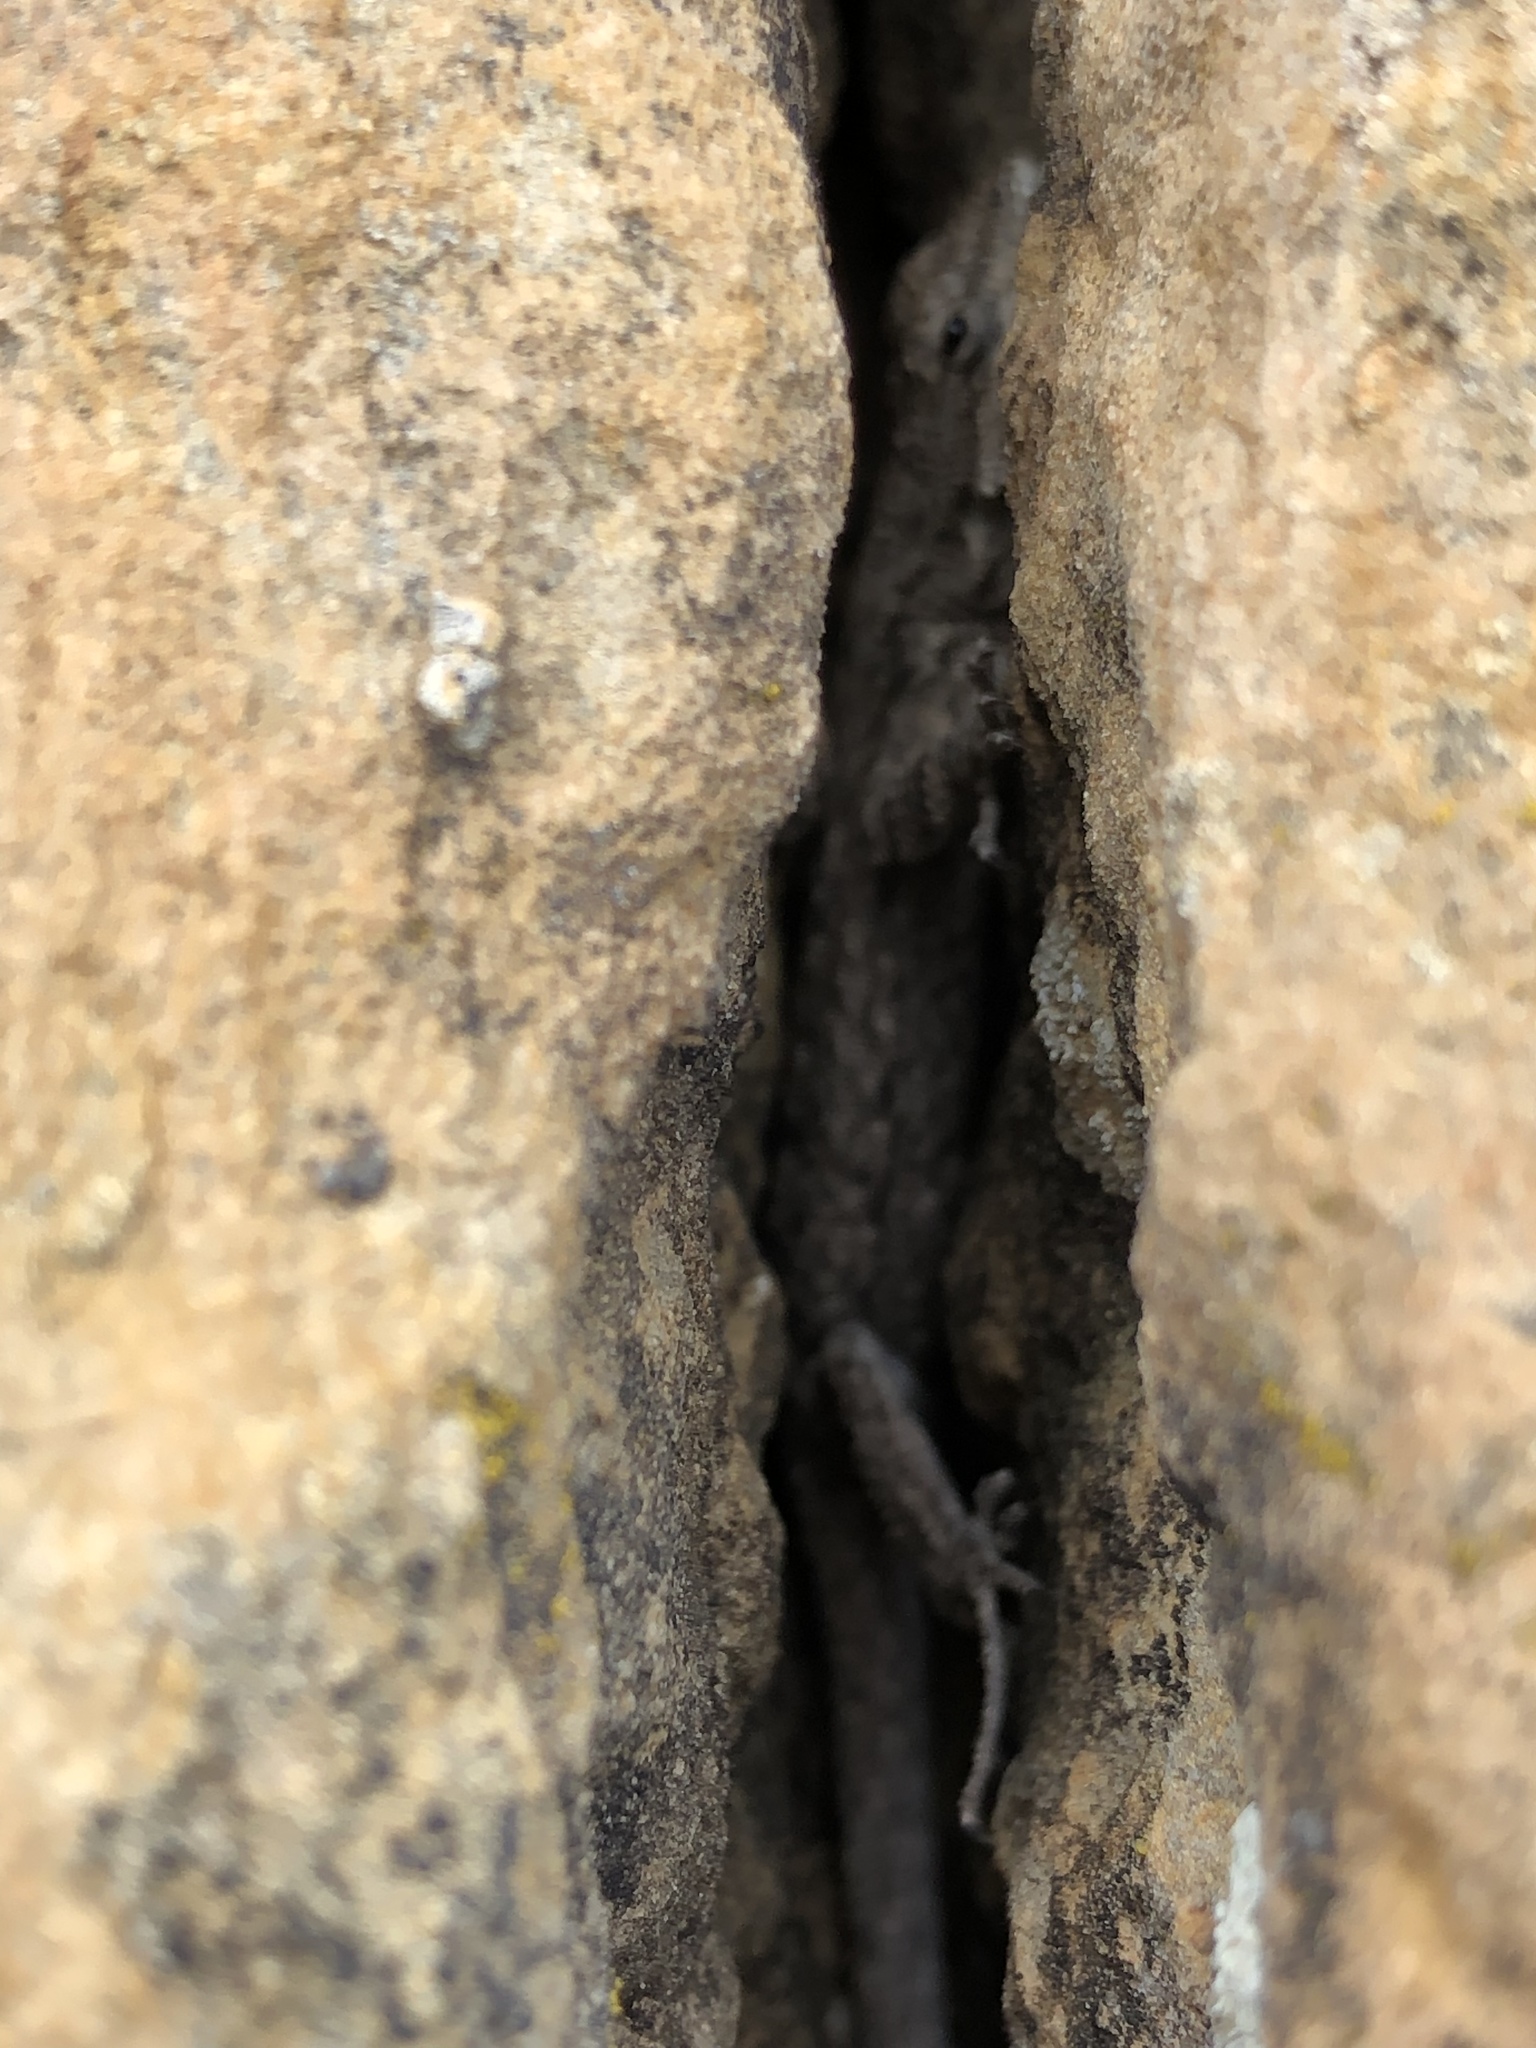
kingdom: Animalia
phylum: Chordata
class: Squamata
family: Phrynosomatidae
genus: Urosaurus
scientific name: Urosaurus ornatus
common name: Ornate tree lizard
